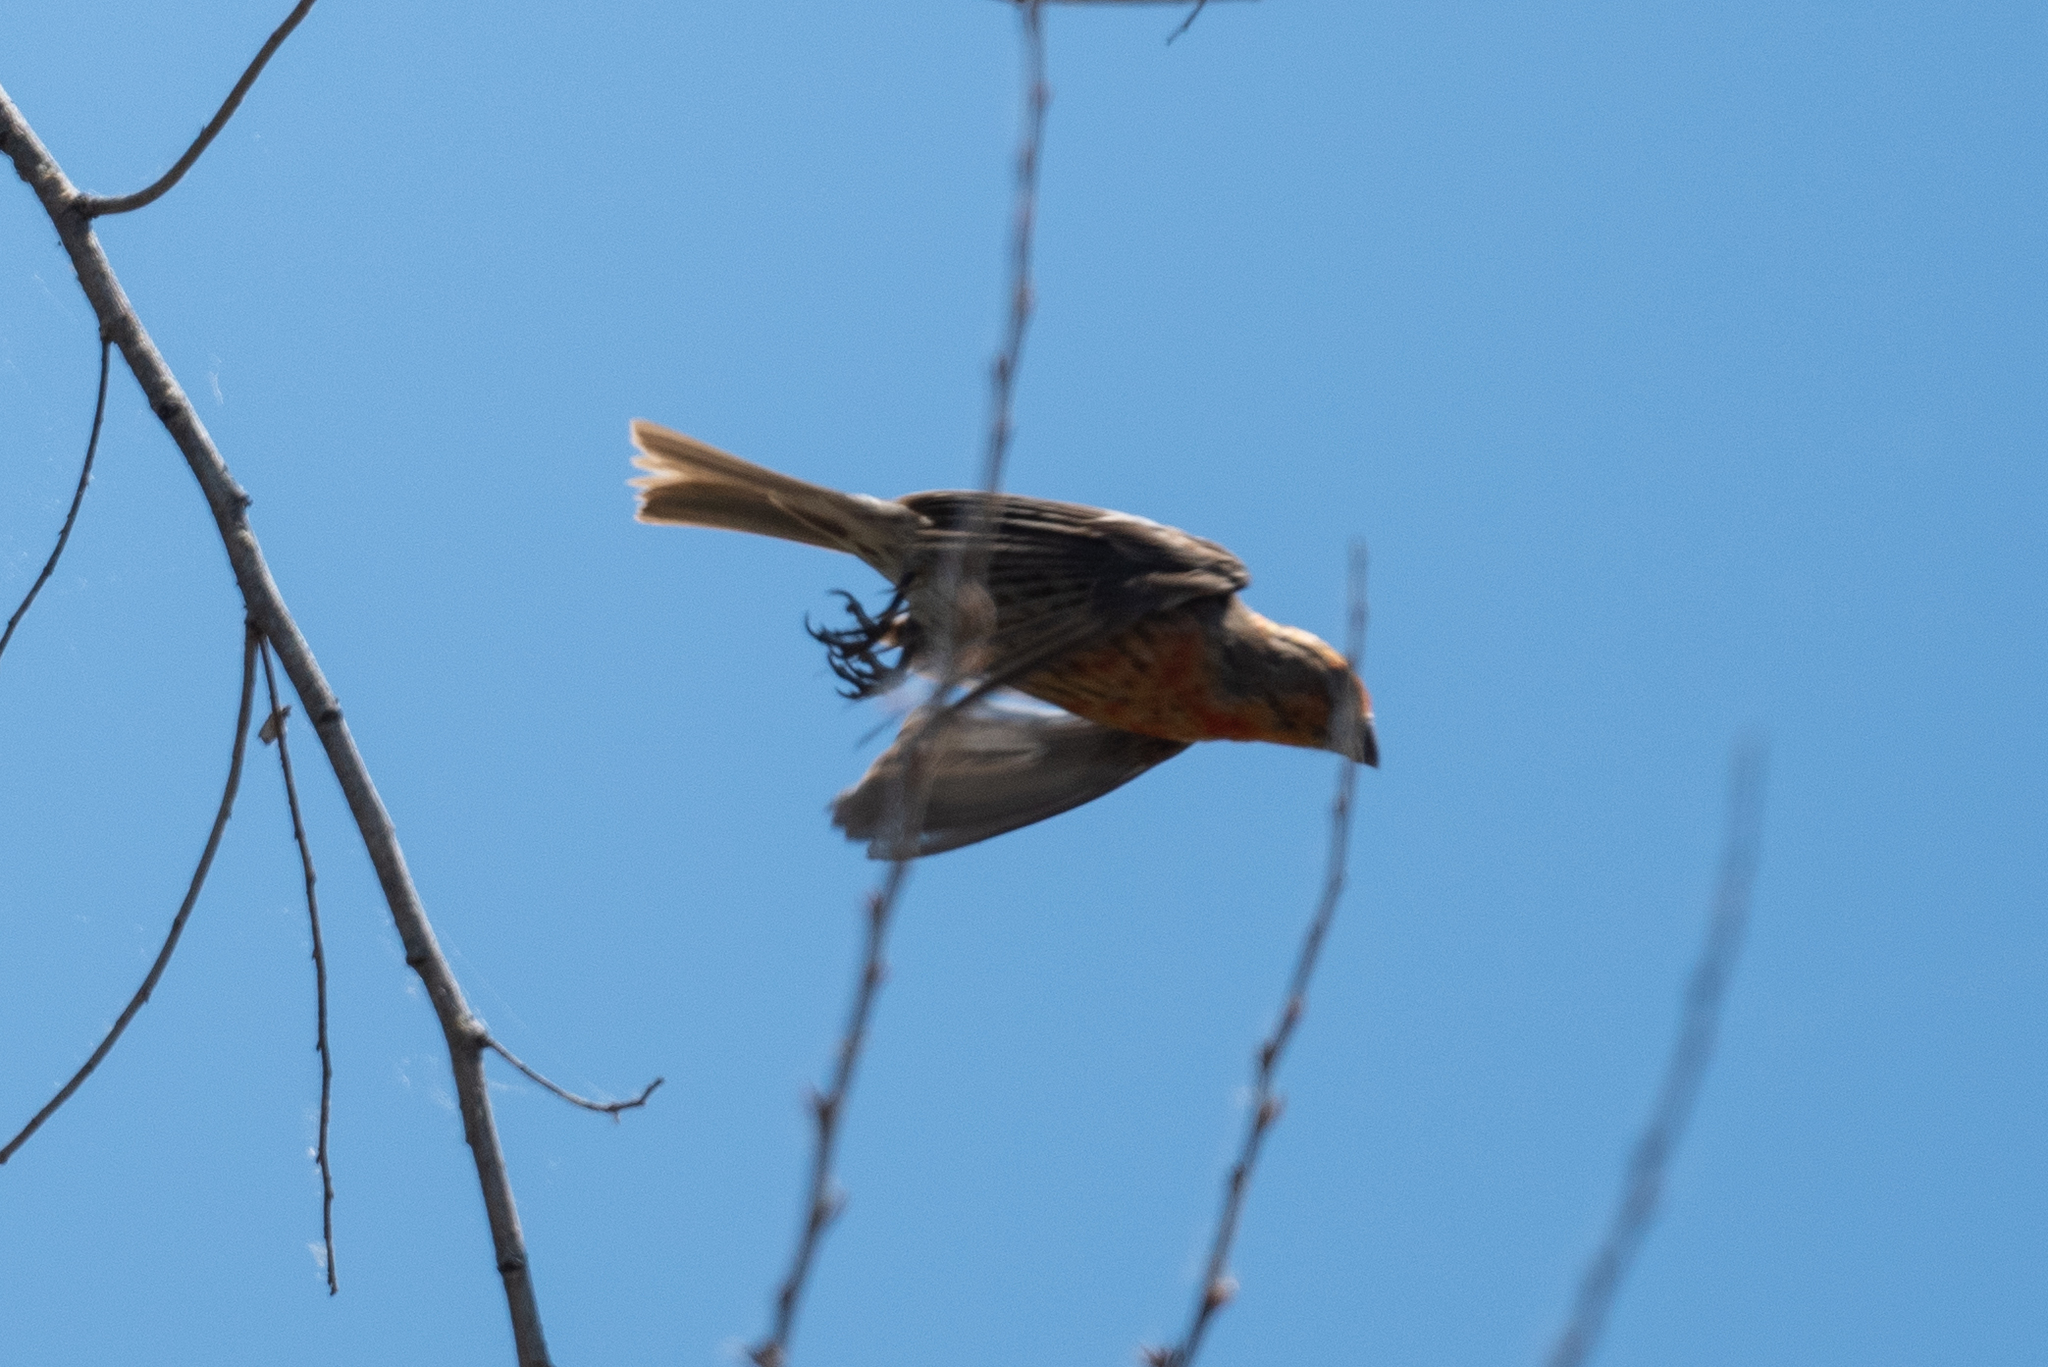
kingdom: Animalia
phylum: Chordata
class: Aves
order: Passeriformes
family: Fringillidae
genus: Haemorhous
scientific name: Haemorhous mexicanus
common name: House finch
